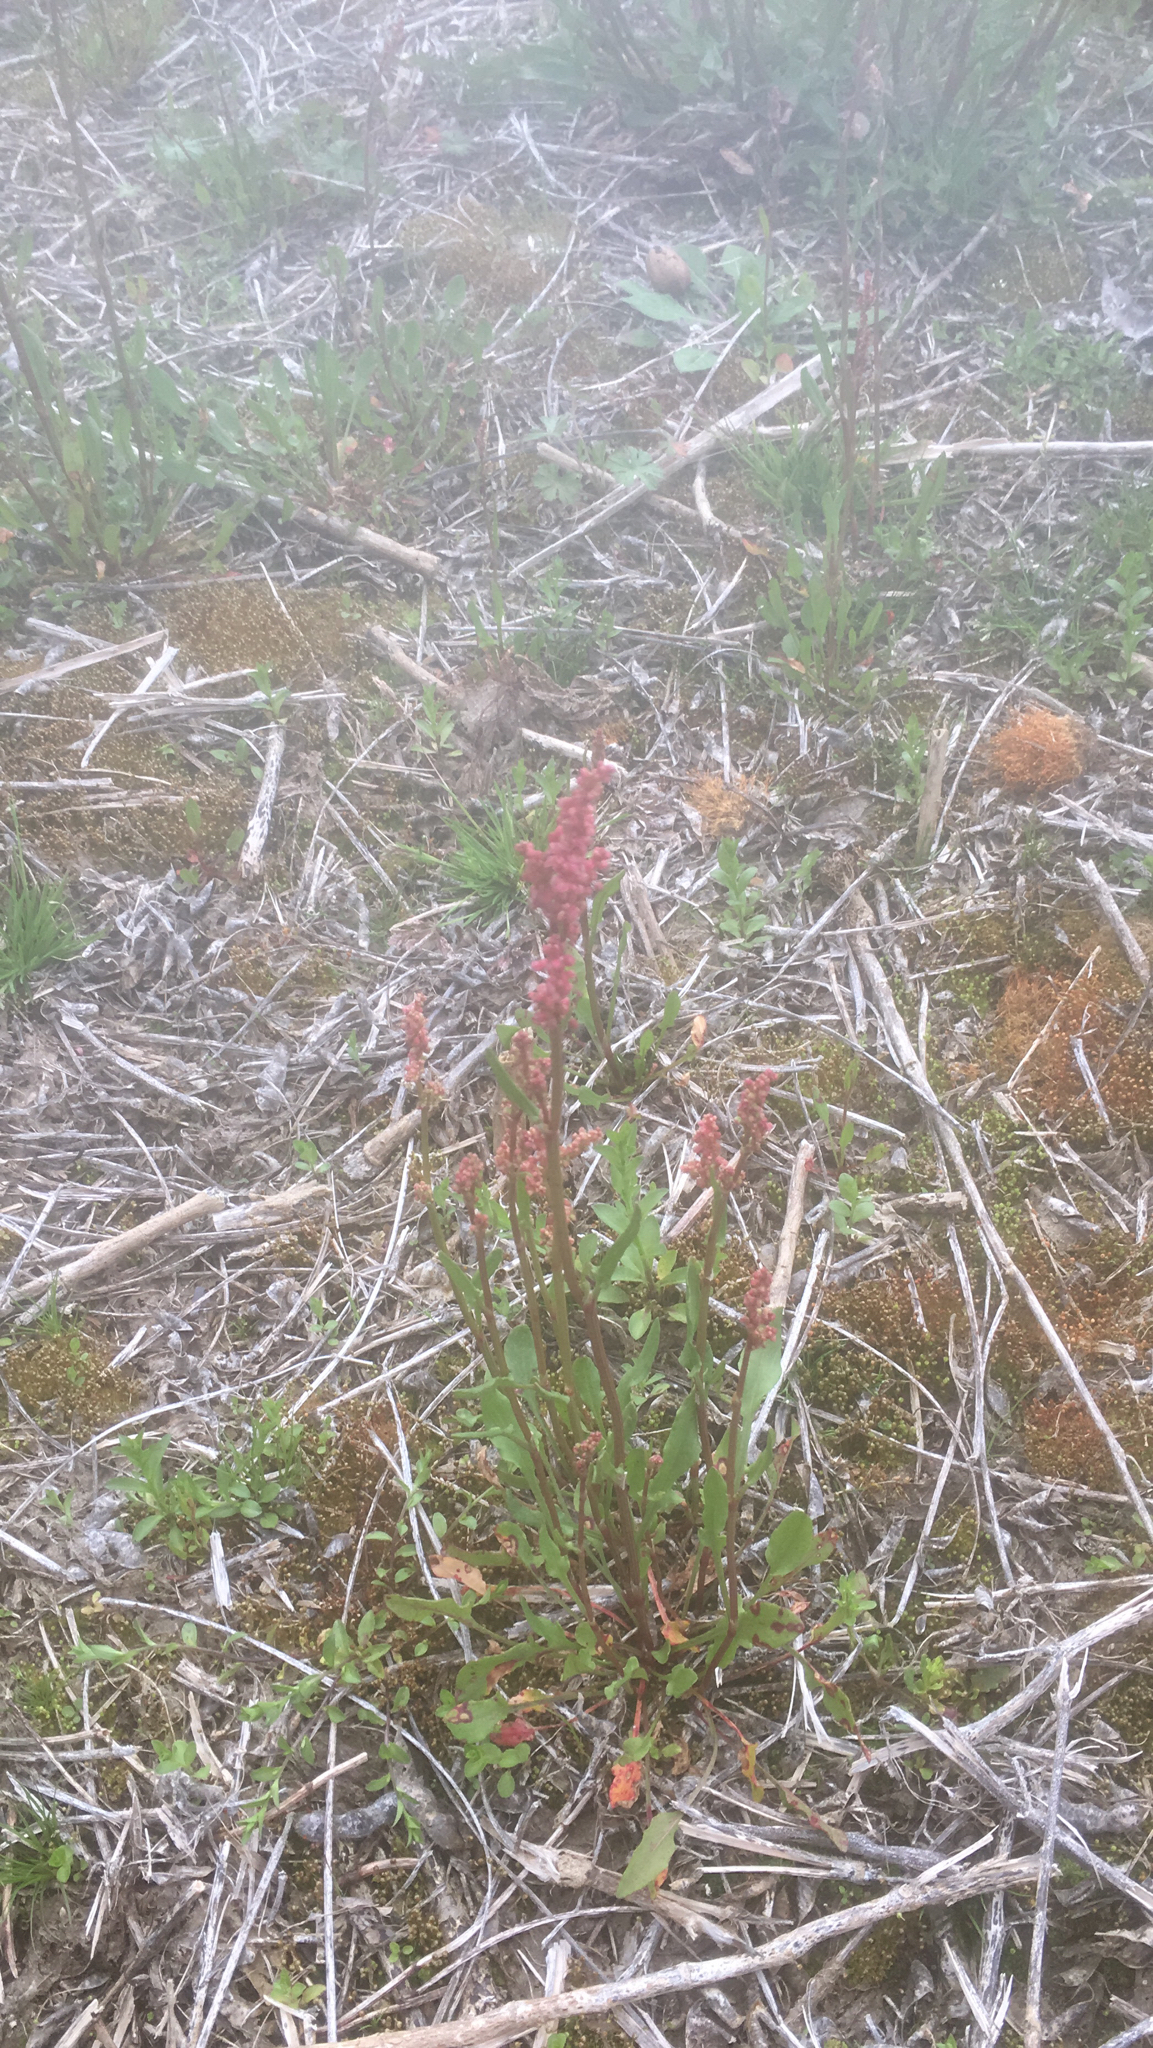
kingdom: Plantae
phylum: Tracheophyta
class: Magnoliopsida
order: Caryophyllales
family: Polygonaceae
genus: Rumex
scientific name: Rumex acetosella
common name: Common sheep sorrel
